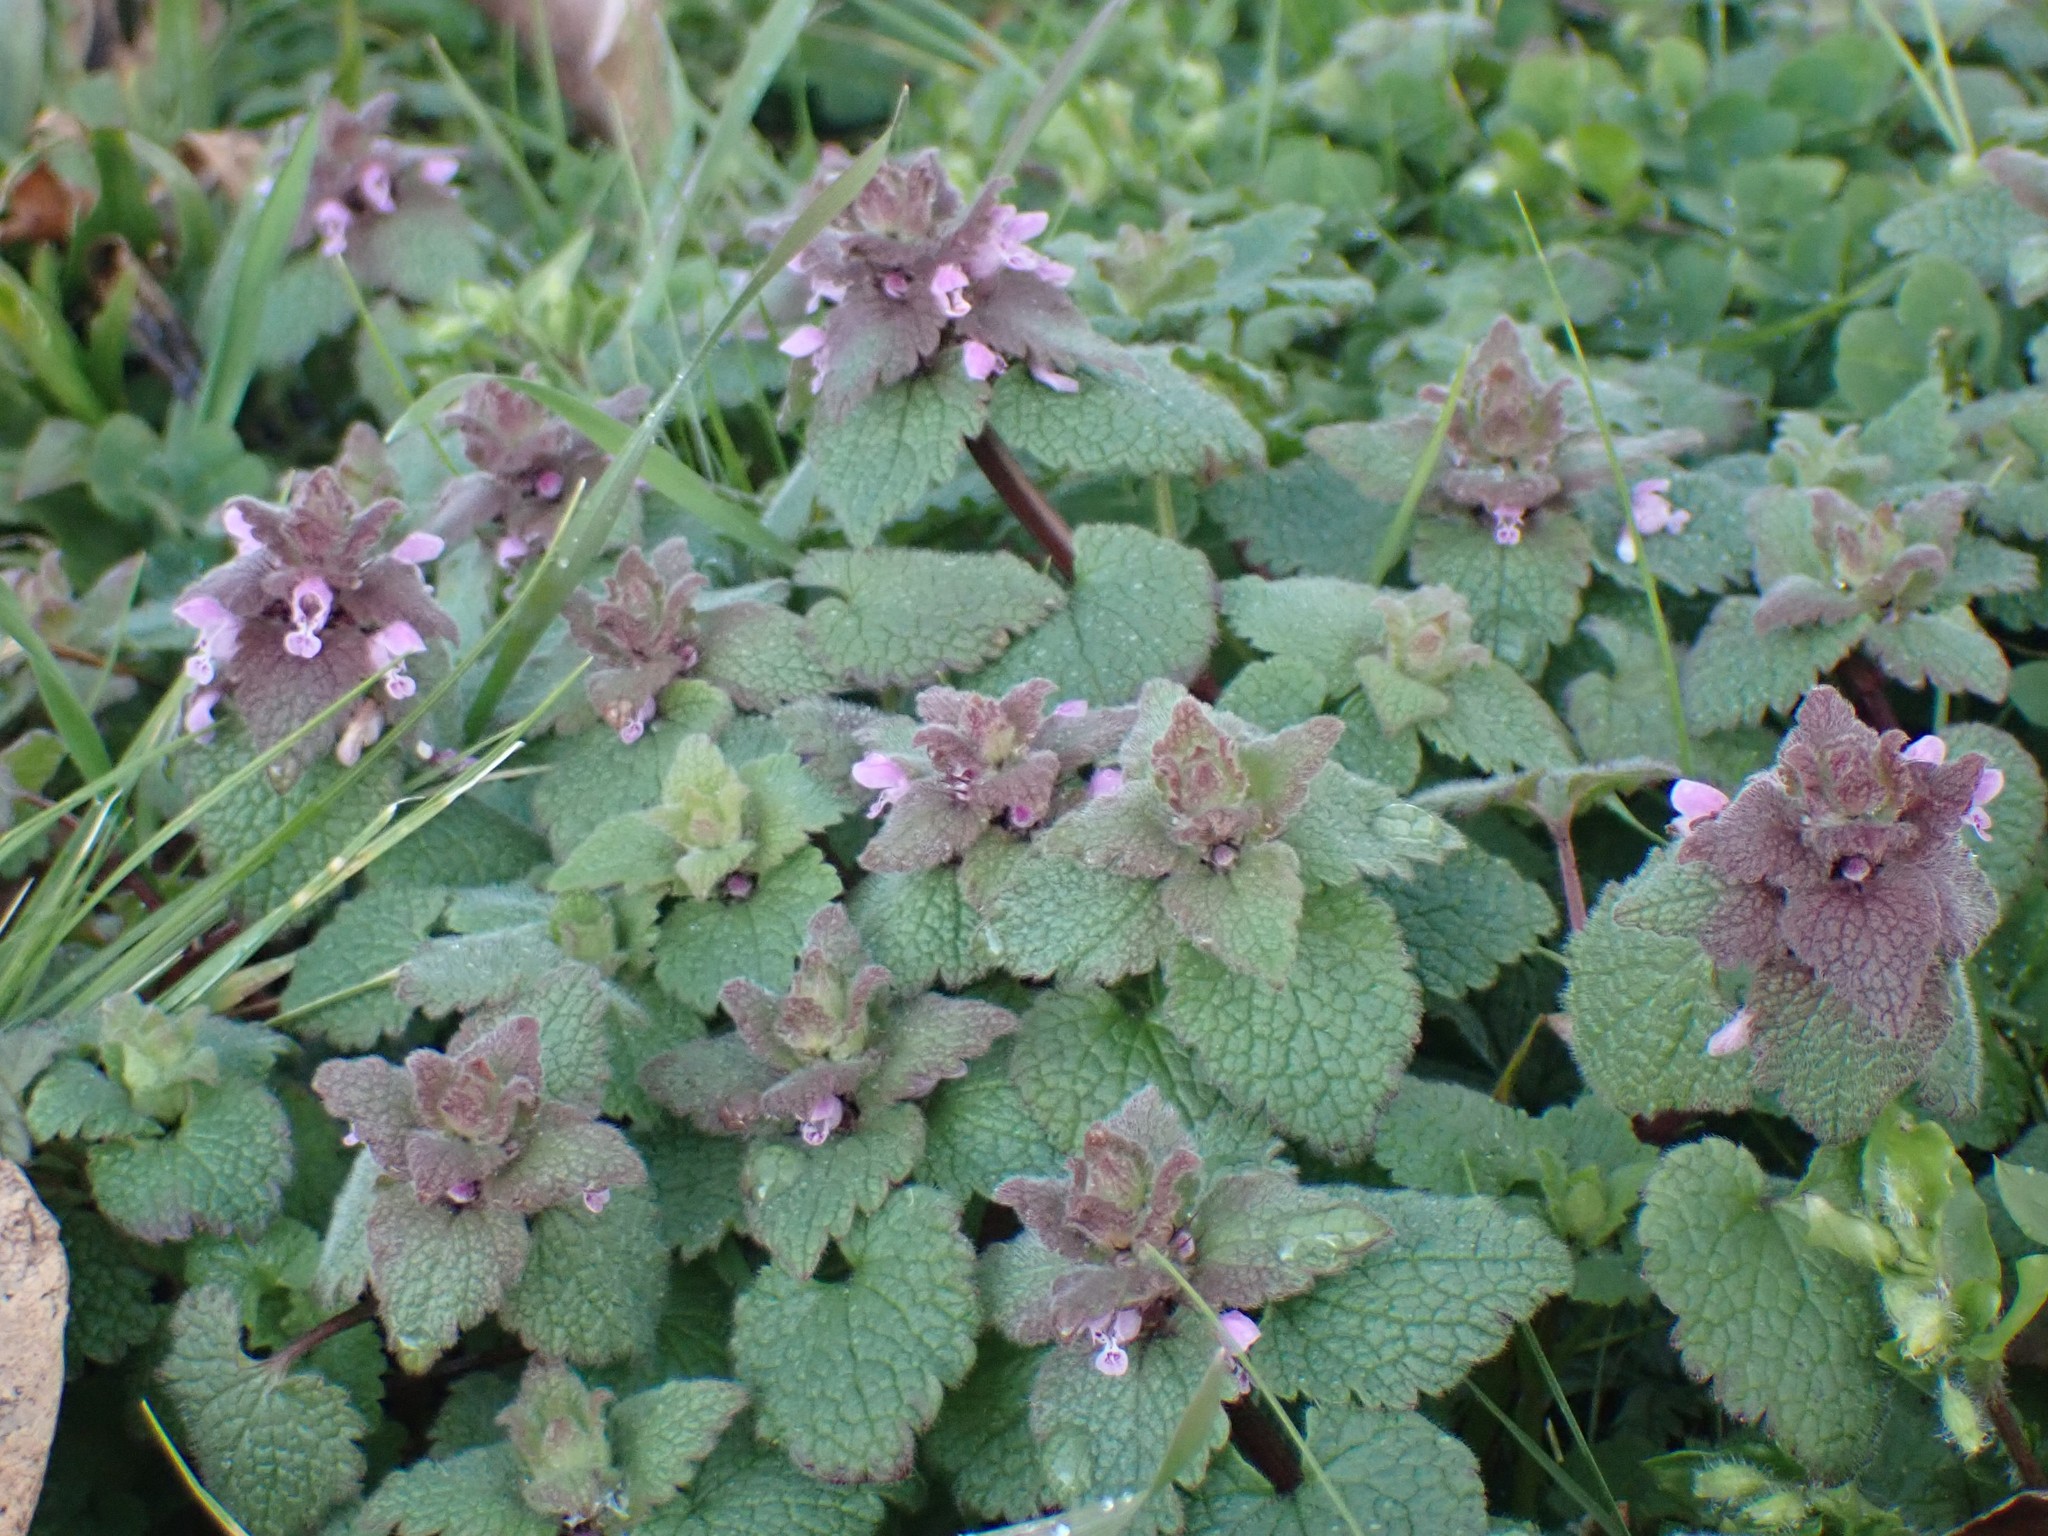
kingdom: Plantae
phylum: Tracheophyta
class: Magnoliopsida
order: Lamiales
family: Lamiaceae
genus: Lamium
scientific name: Lamium purpureum
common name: Red dead-nettle
